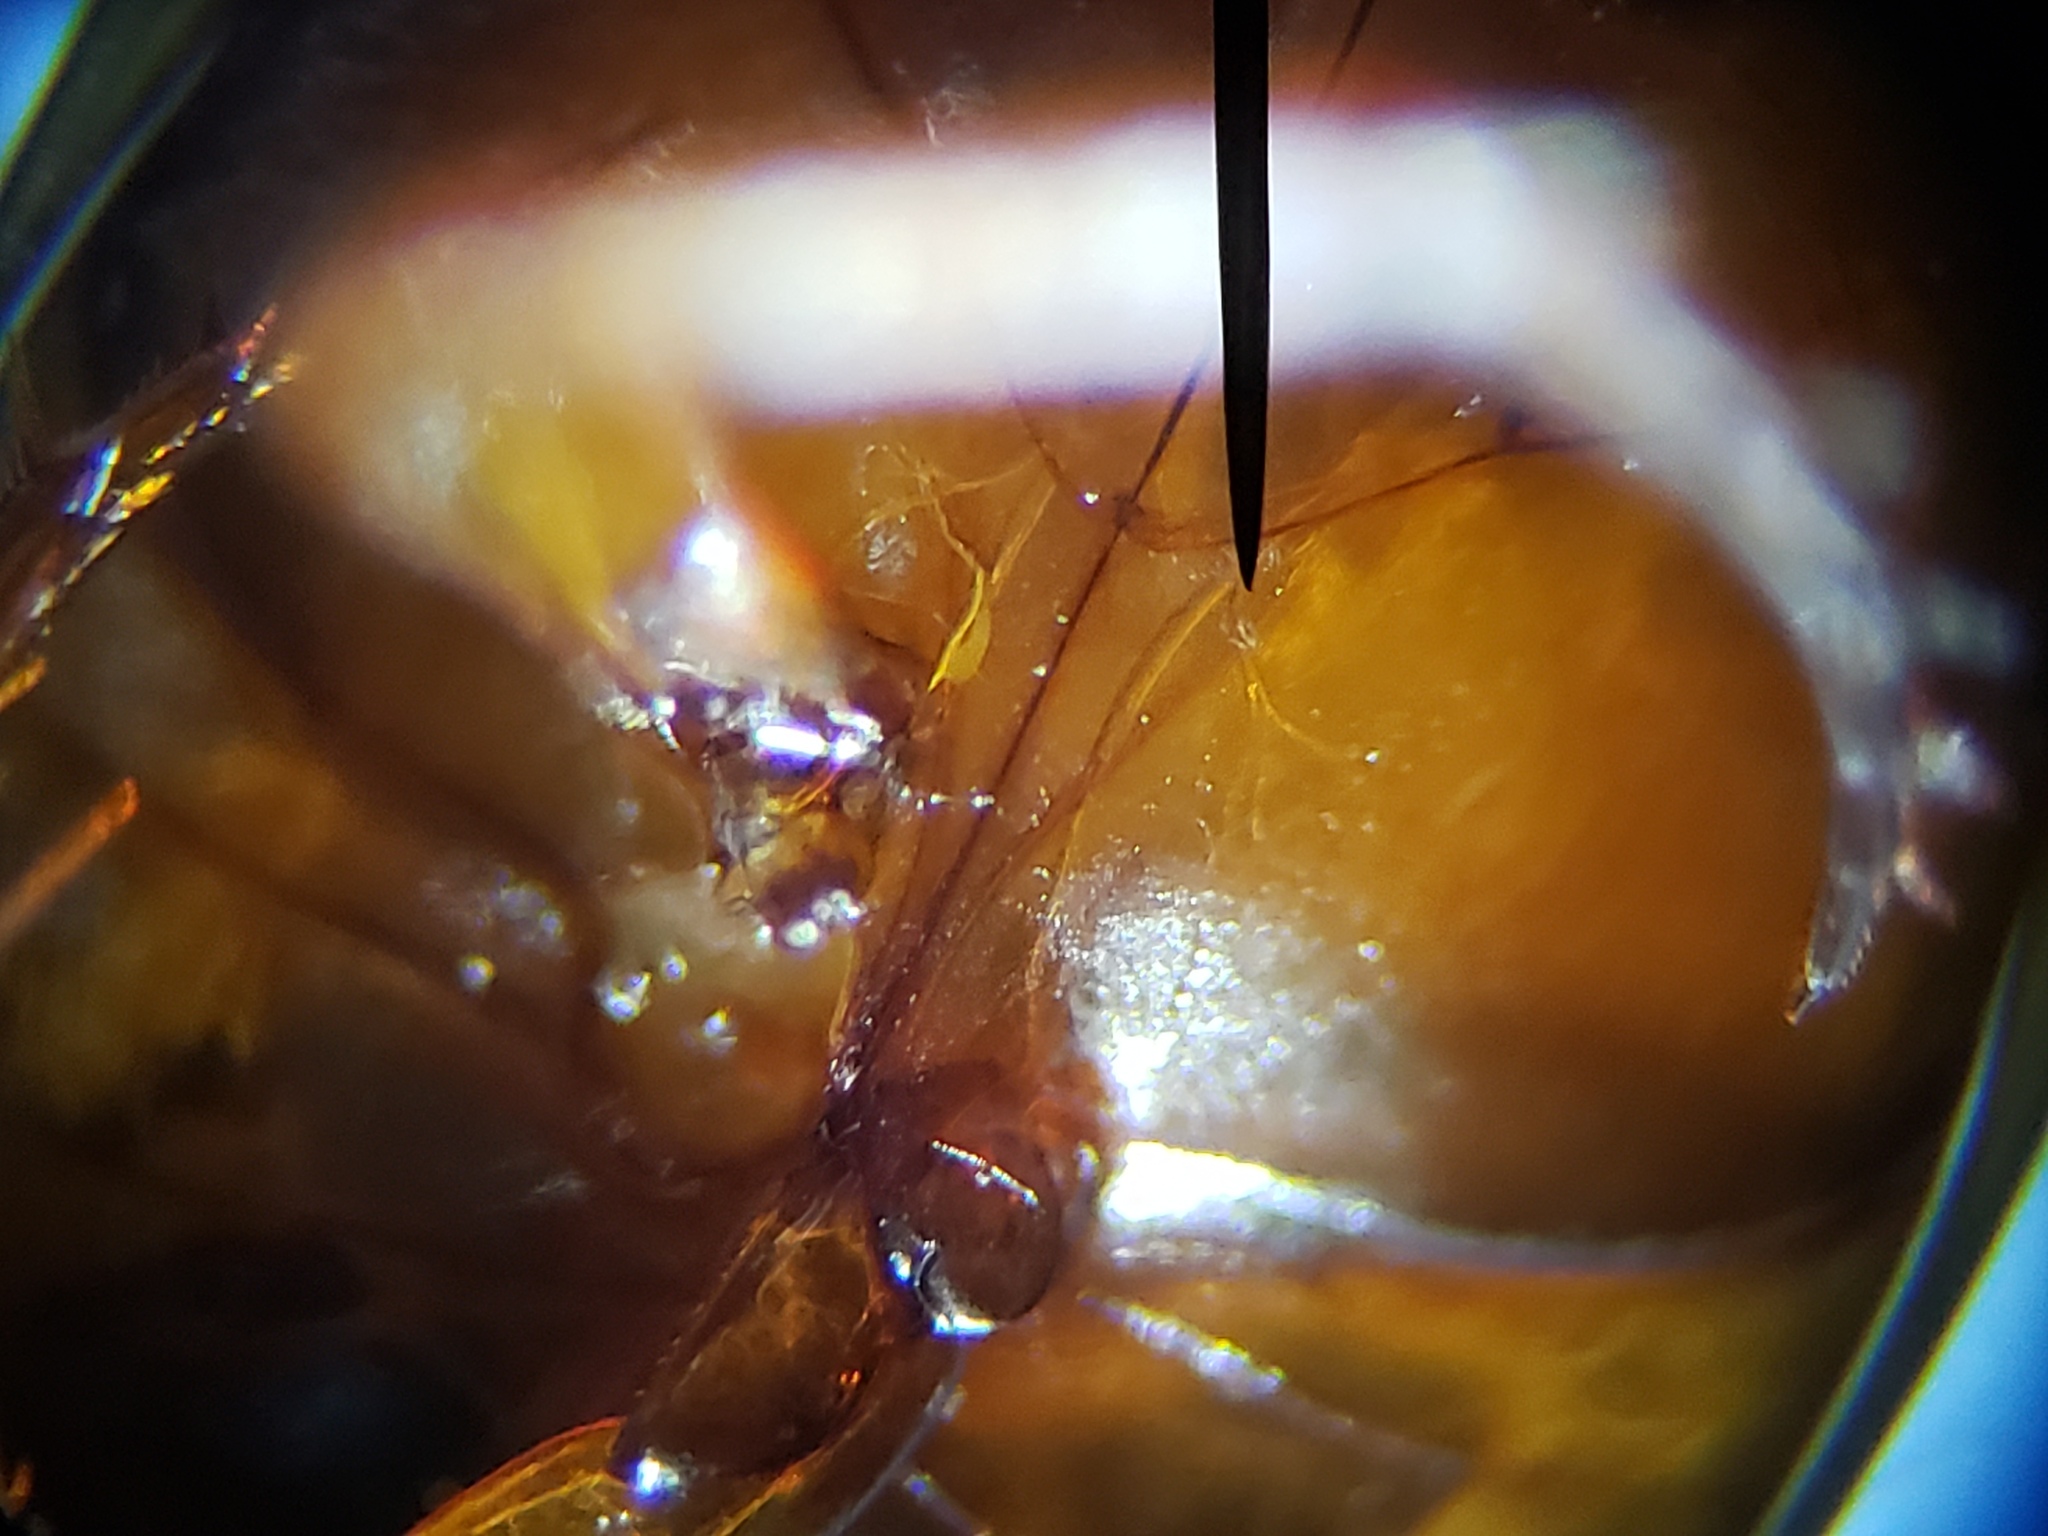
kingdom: Animalia
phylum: Arthropoda
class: Insecta
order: Coleoptera
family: Dytiscidae
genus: Copelatus
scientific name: Copelatus chevrolati
